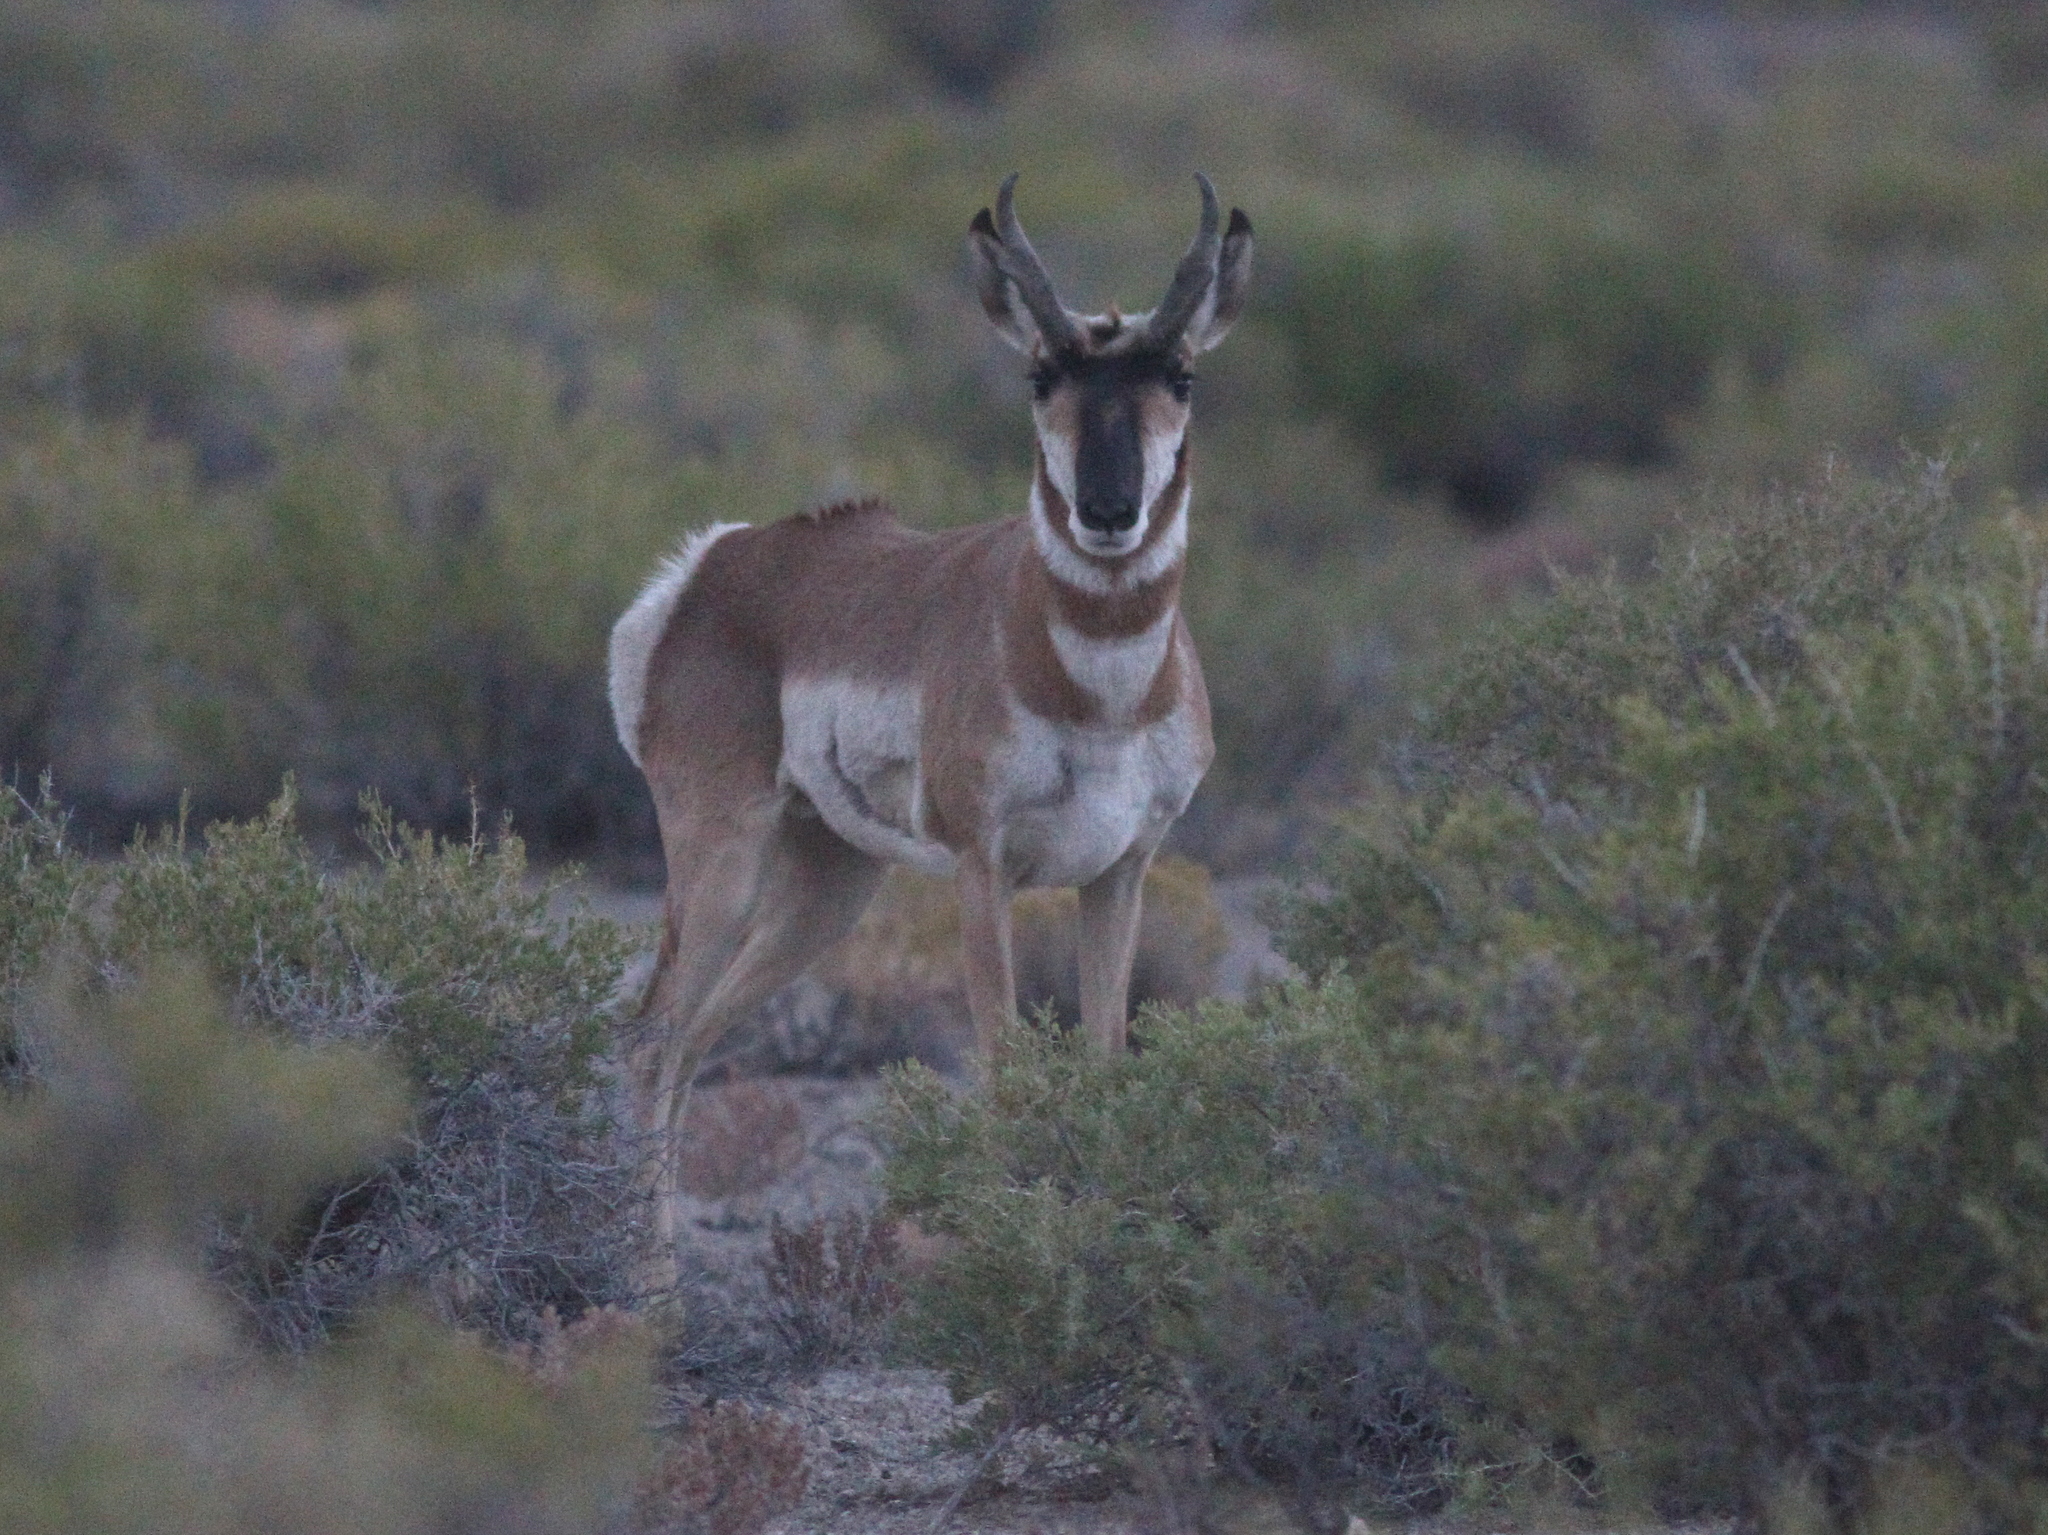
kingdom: Animalia
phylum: Chordata
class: Mammalia
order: Artiodactyla
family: Antilocapridae
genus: Antilocapra
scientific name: Antilocapra americana
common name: Pronghorn
